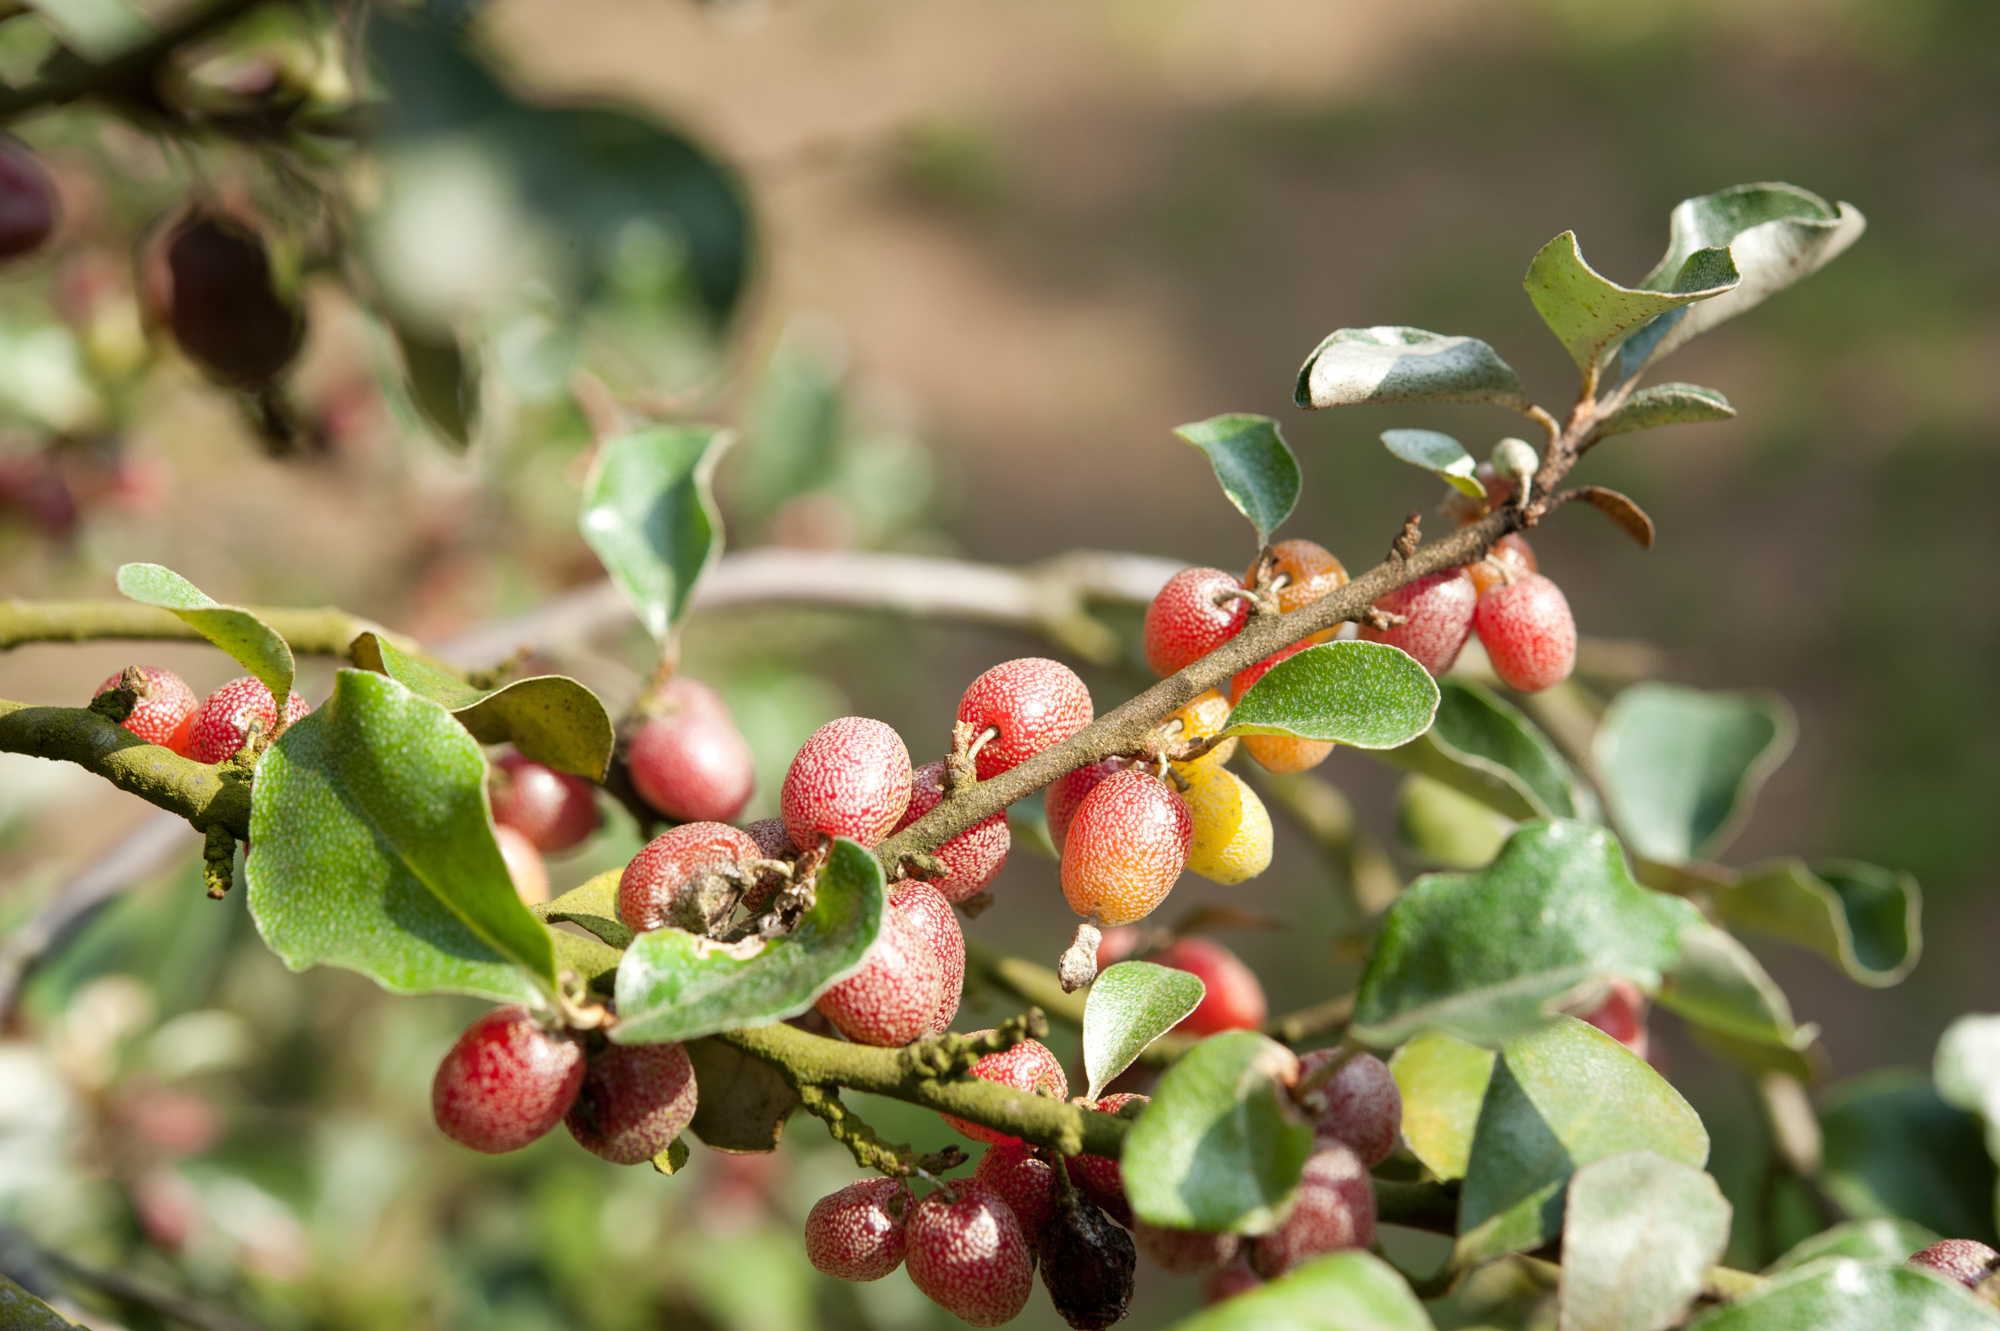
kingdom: Plantae
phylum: Tracheophyta
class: Magnoliopsida
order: Rosales
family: Elaeagnaceae
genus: Elaeagnus
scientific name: Elaeagnus oldhamii
